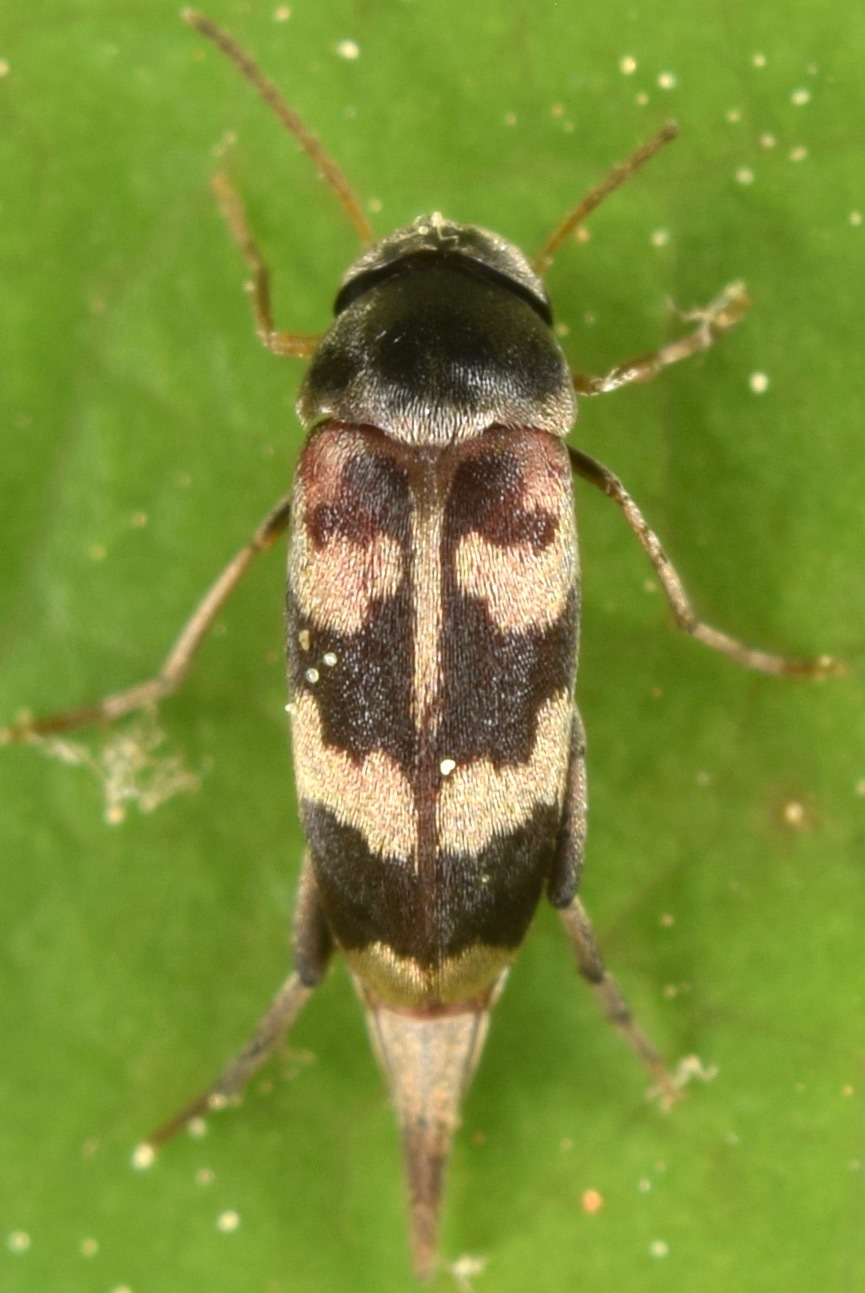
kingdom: Animalia
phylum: Arthropoda
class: Insecta
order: Coleoptera
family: Mordellidae
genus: Falsomordellistena
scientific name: Falsomordellistena pubescens
